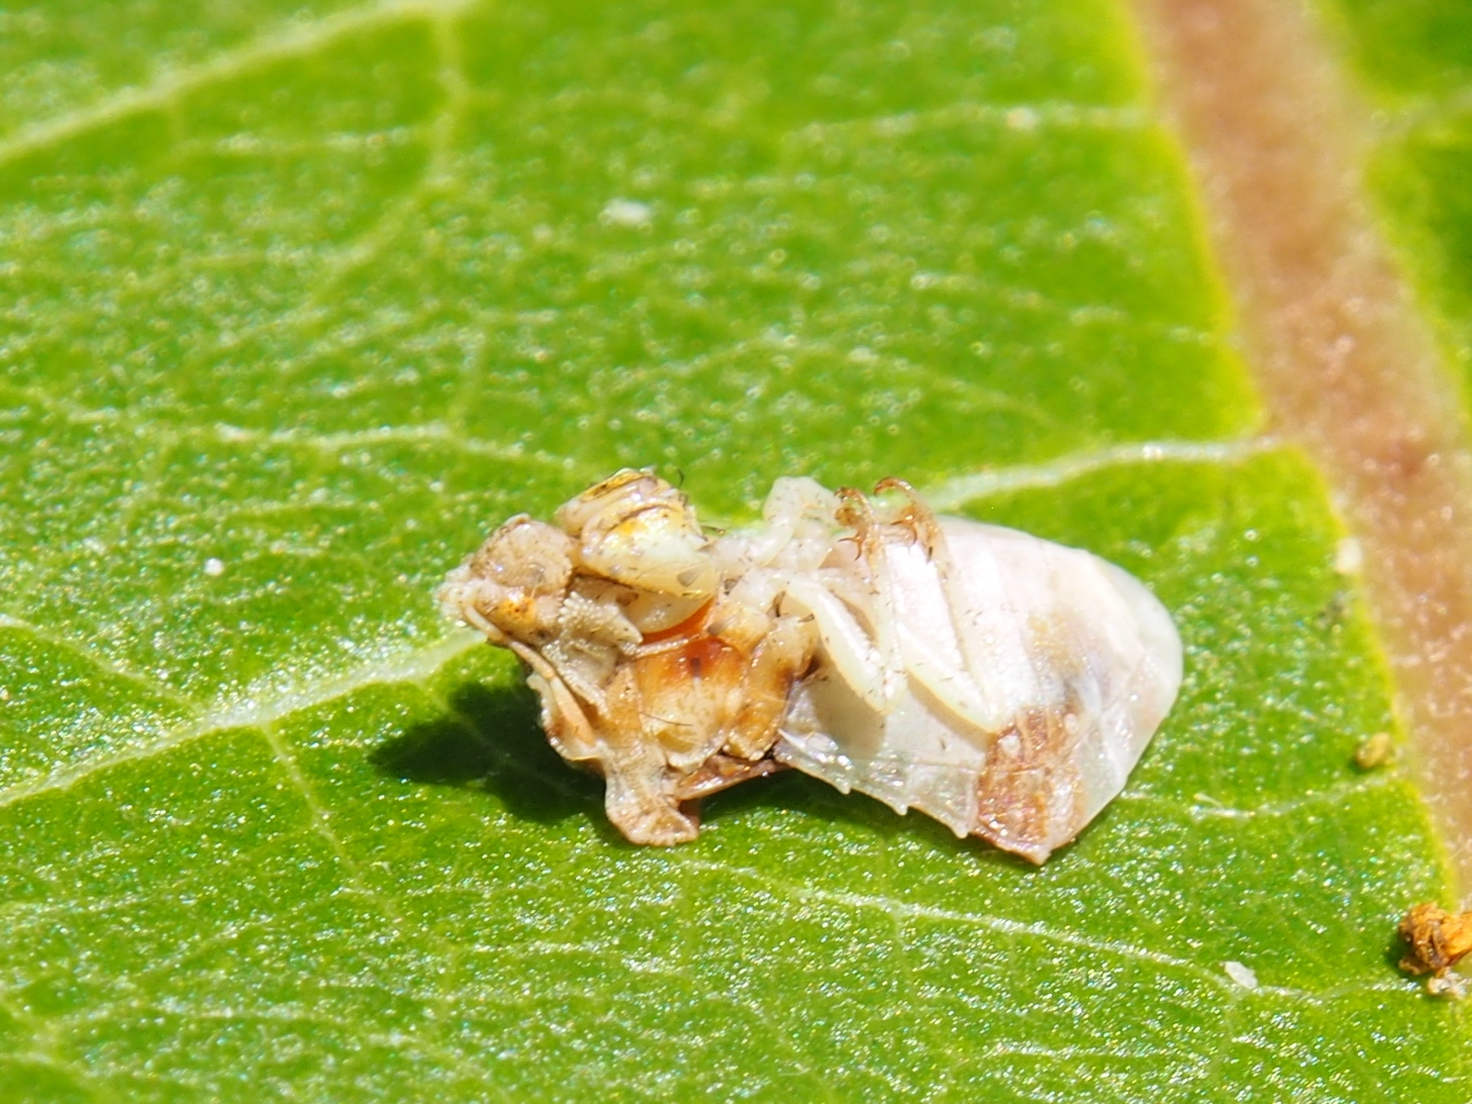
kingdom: Animalia
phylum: Arthropoda
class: Insecta
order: Hemiptera
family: Reduviidae
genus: Phymata
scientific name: Phymata fasciata
